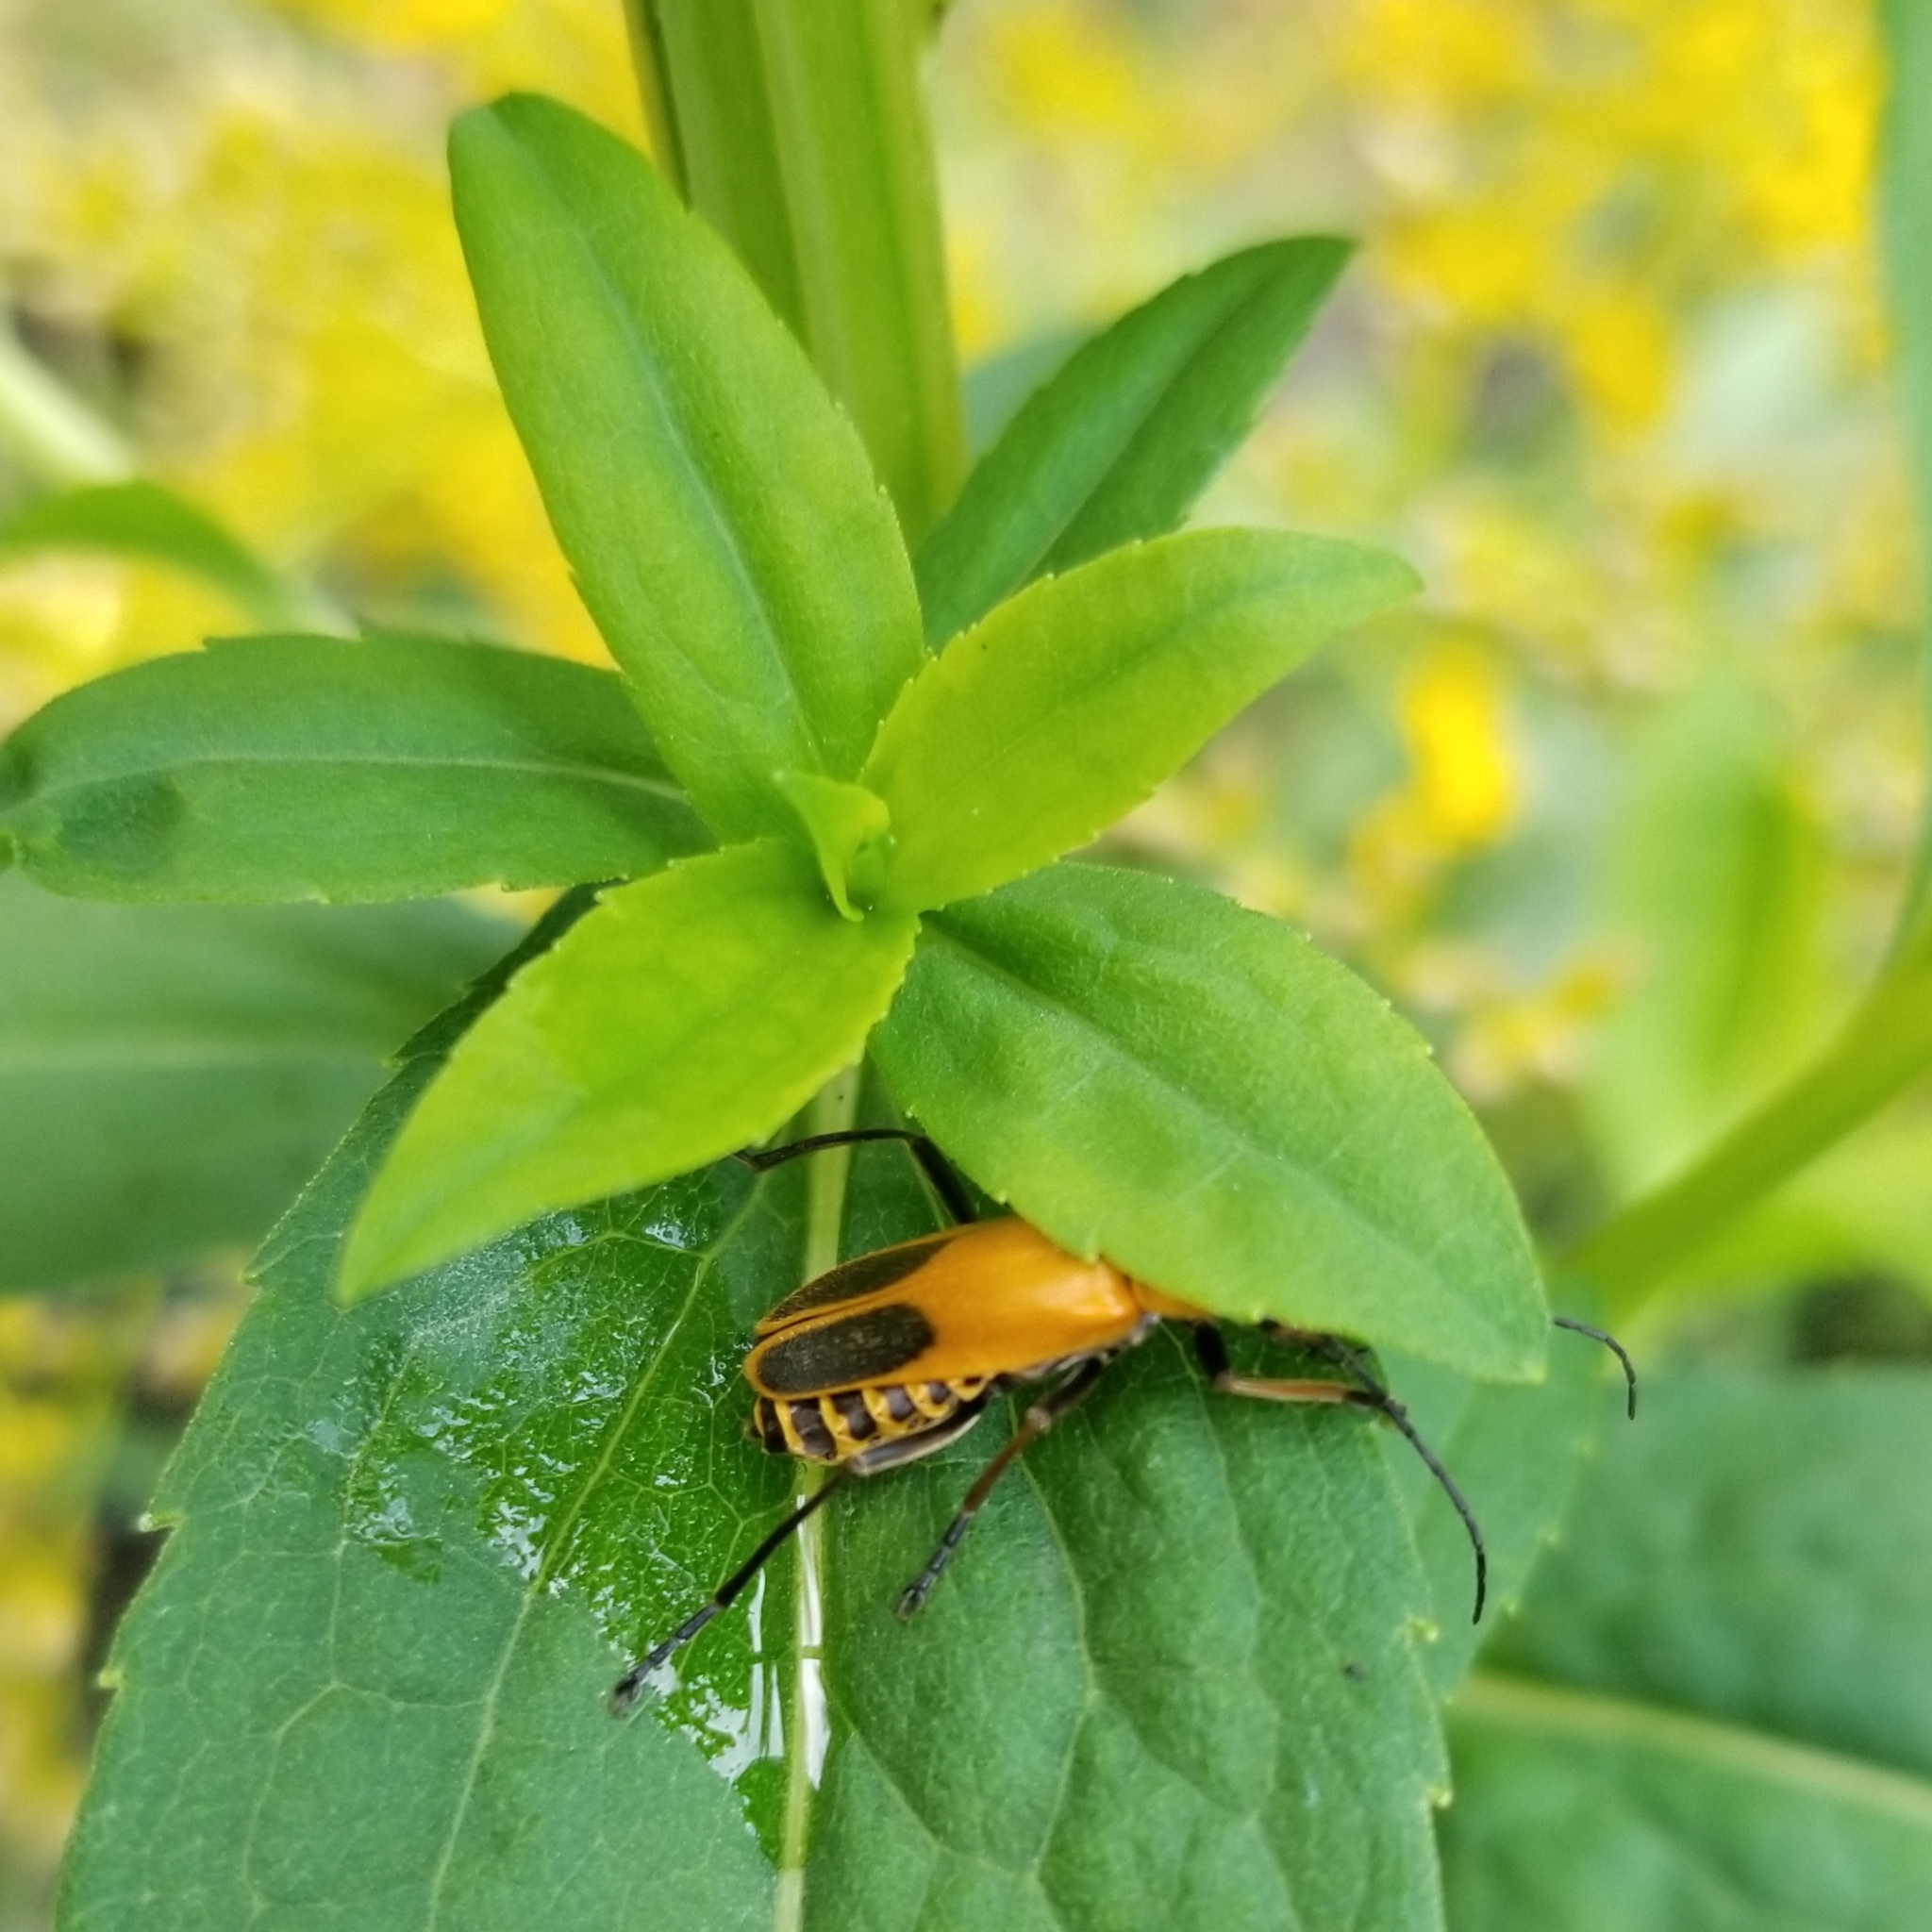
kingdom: Animalia
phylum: Arthropoda
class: Insecta
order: Coleoptera
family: Cantharidae
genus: Chauliognathus
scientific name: Chauliognathus pensylvanicus
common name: Goldenrod soldier beetle
